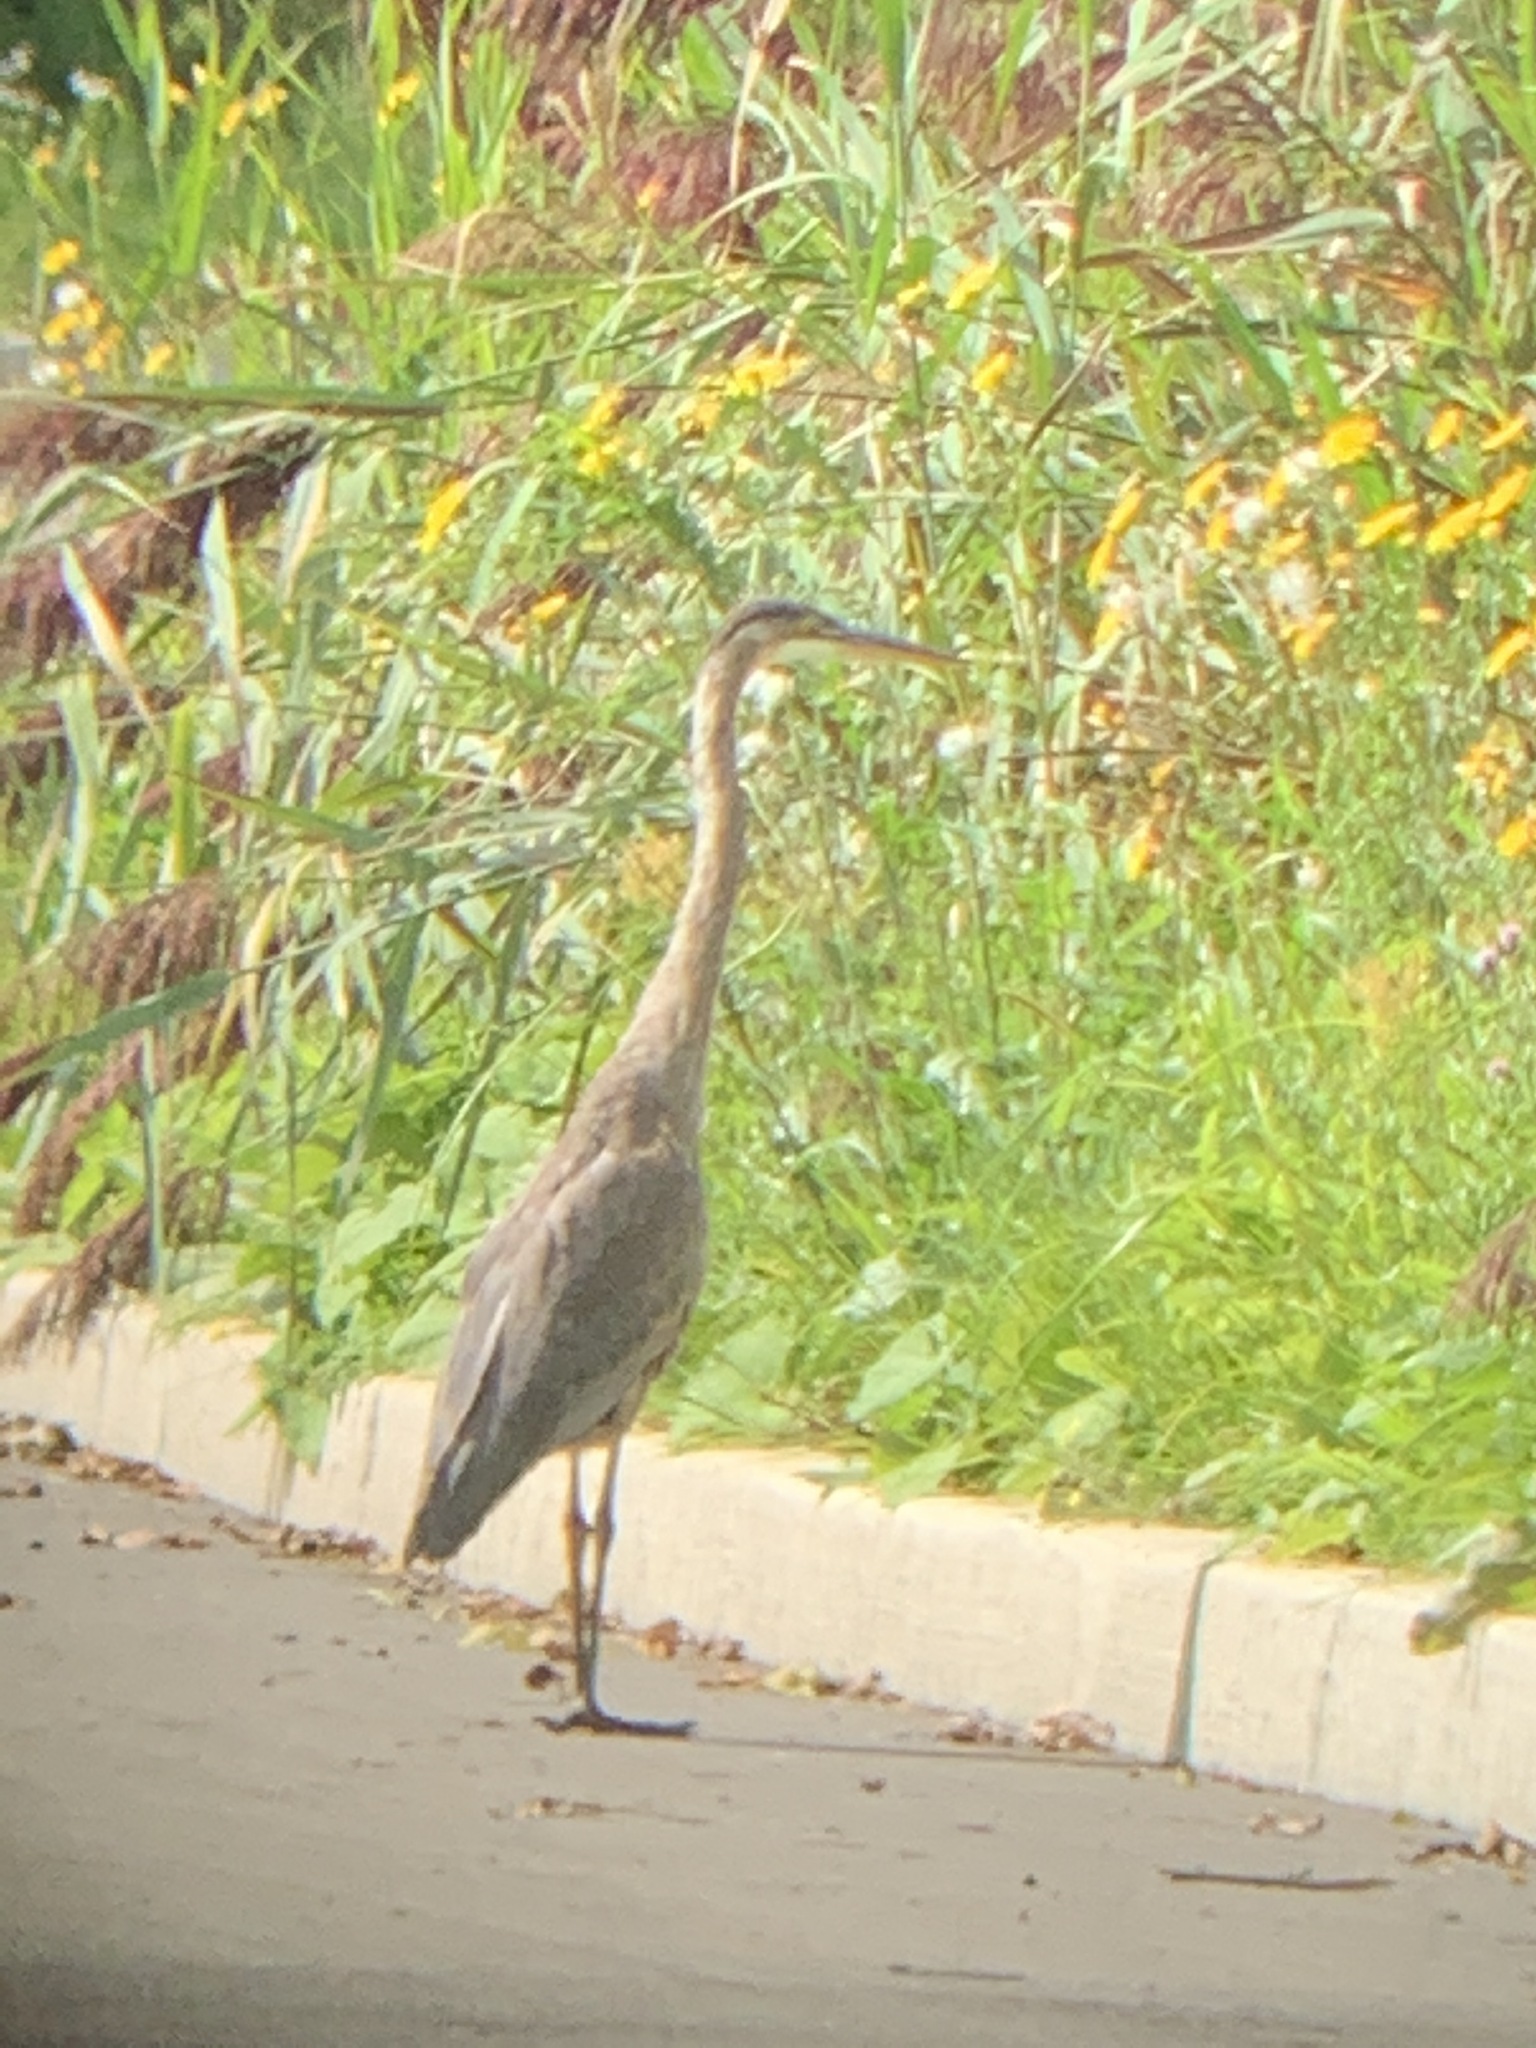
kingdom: Animalia
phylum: Chordata
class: Aves
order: Pelecaniformes
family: Ardeidae
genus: Ardea
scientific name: Ardea herodias
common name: Great blue heron
